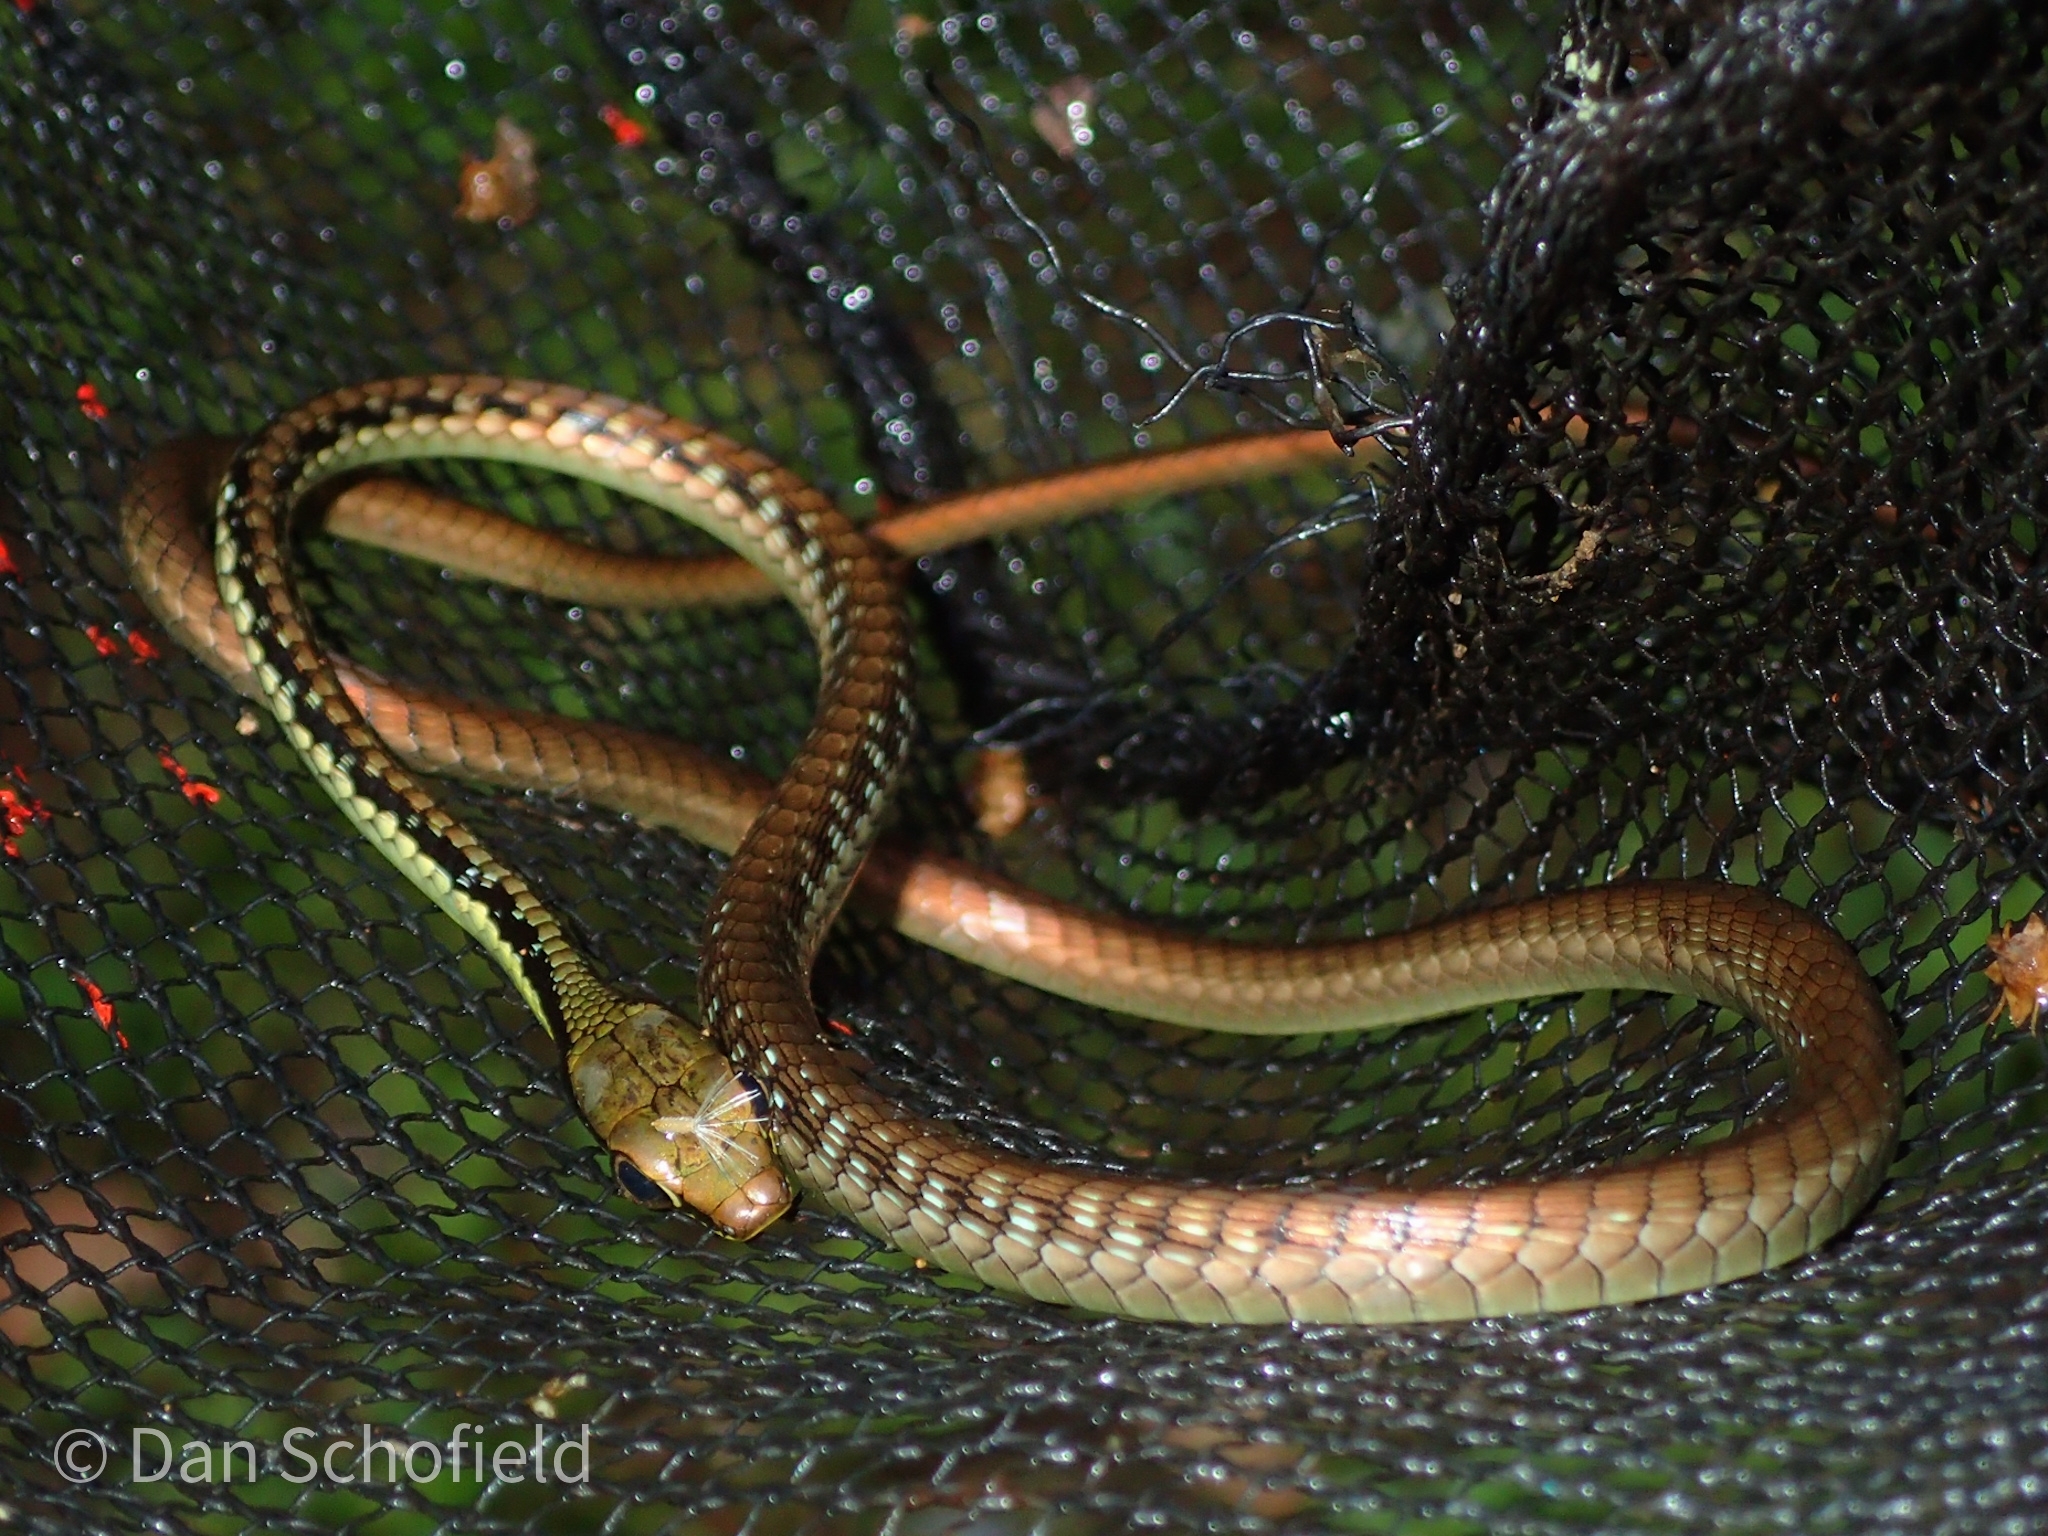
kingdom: Animalia
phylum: Chordata
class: Squamata
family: Colubridae
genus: Dendrelaphis
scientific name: Dendrelaphis marenae
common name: Maren’s bronzeback
